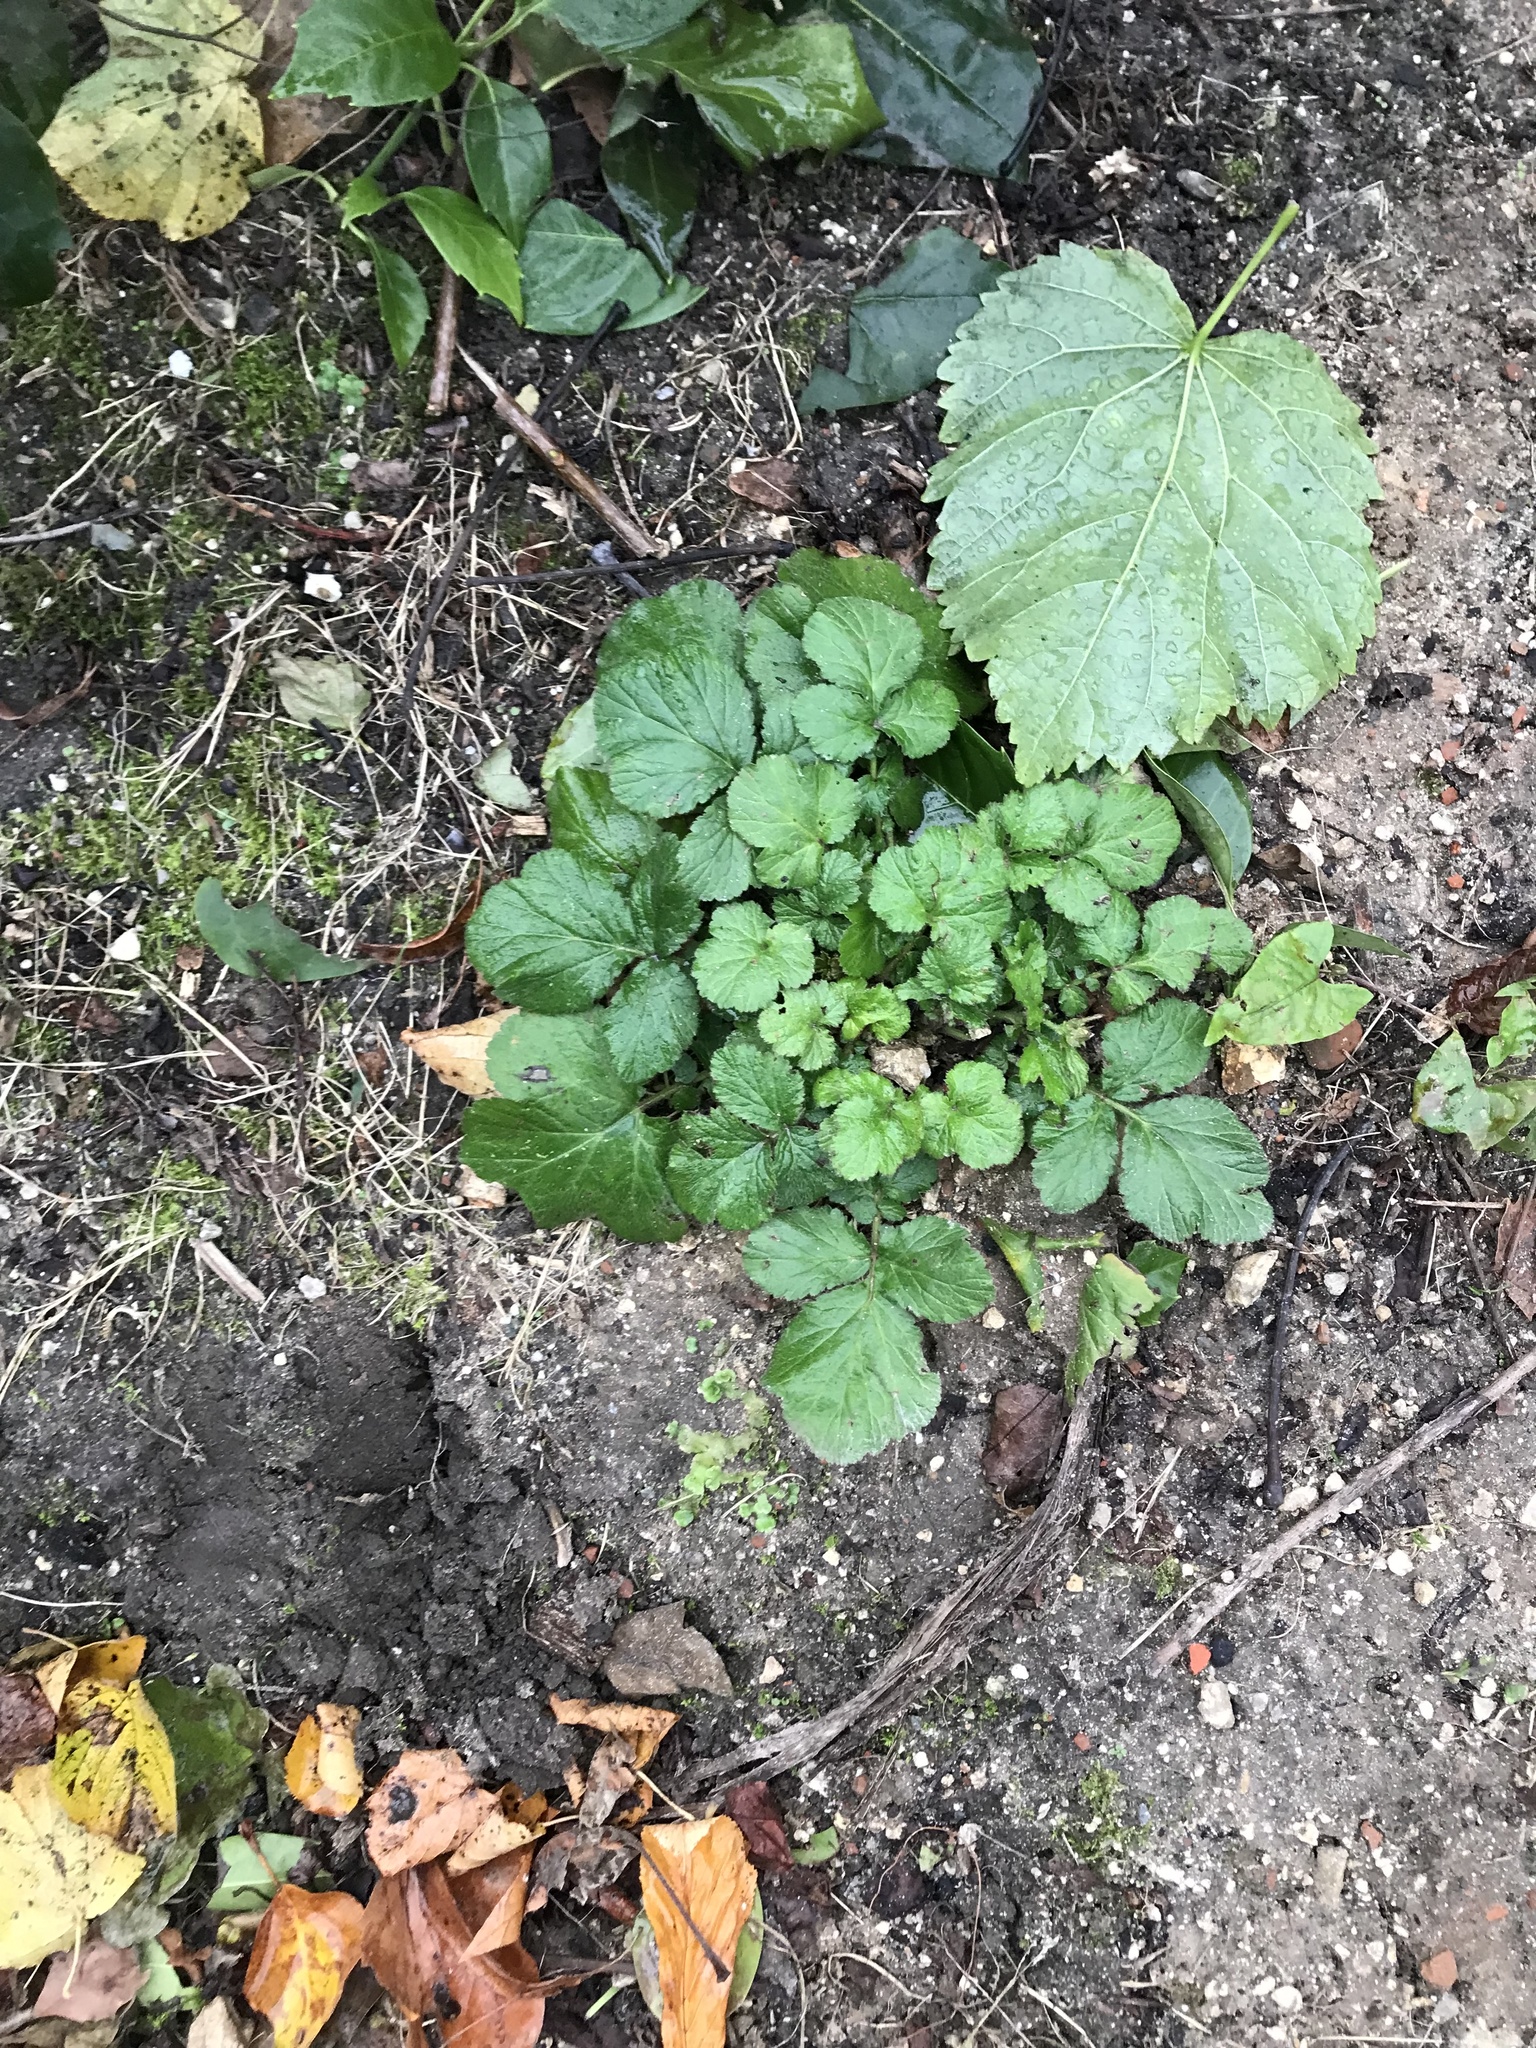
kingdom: Plantae
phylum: Tracheophyta
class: Magnoliopsida
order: Rosales
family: Rosaceae
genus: Geum
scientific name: Geum urbanum
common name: Wood avens
